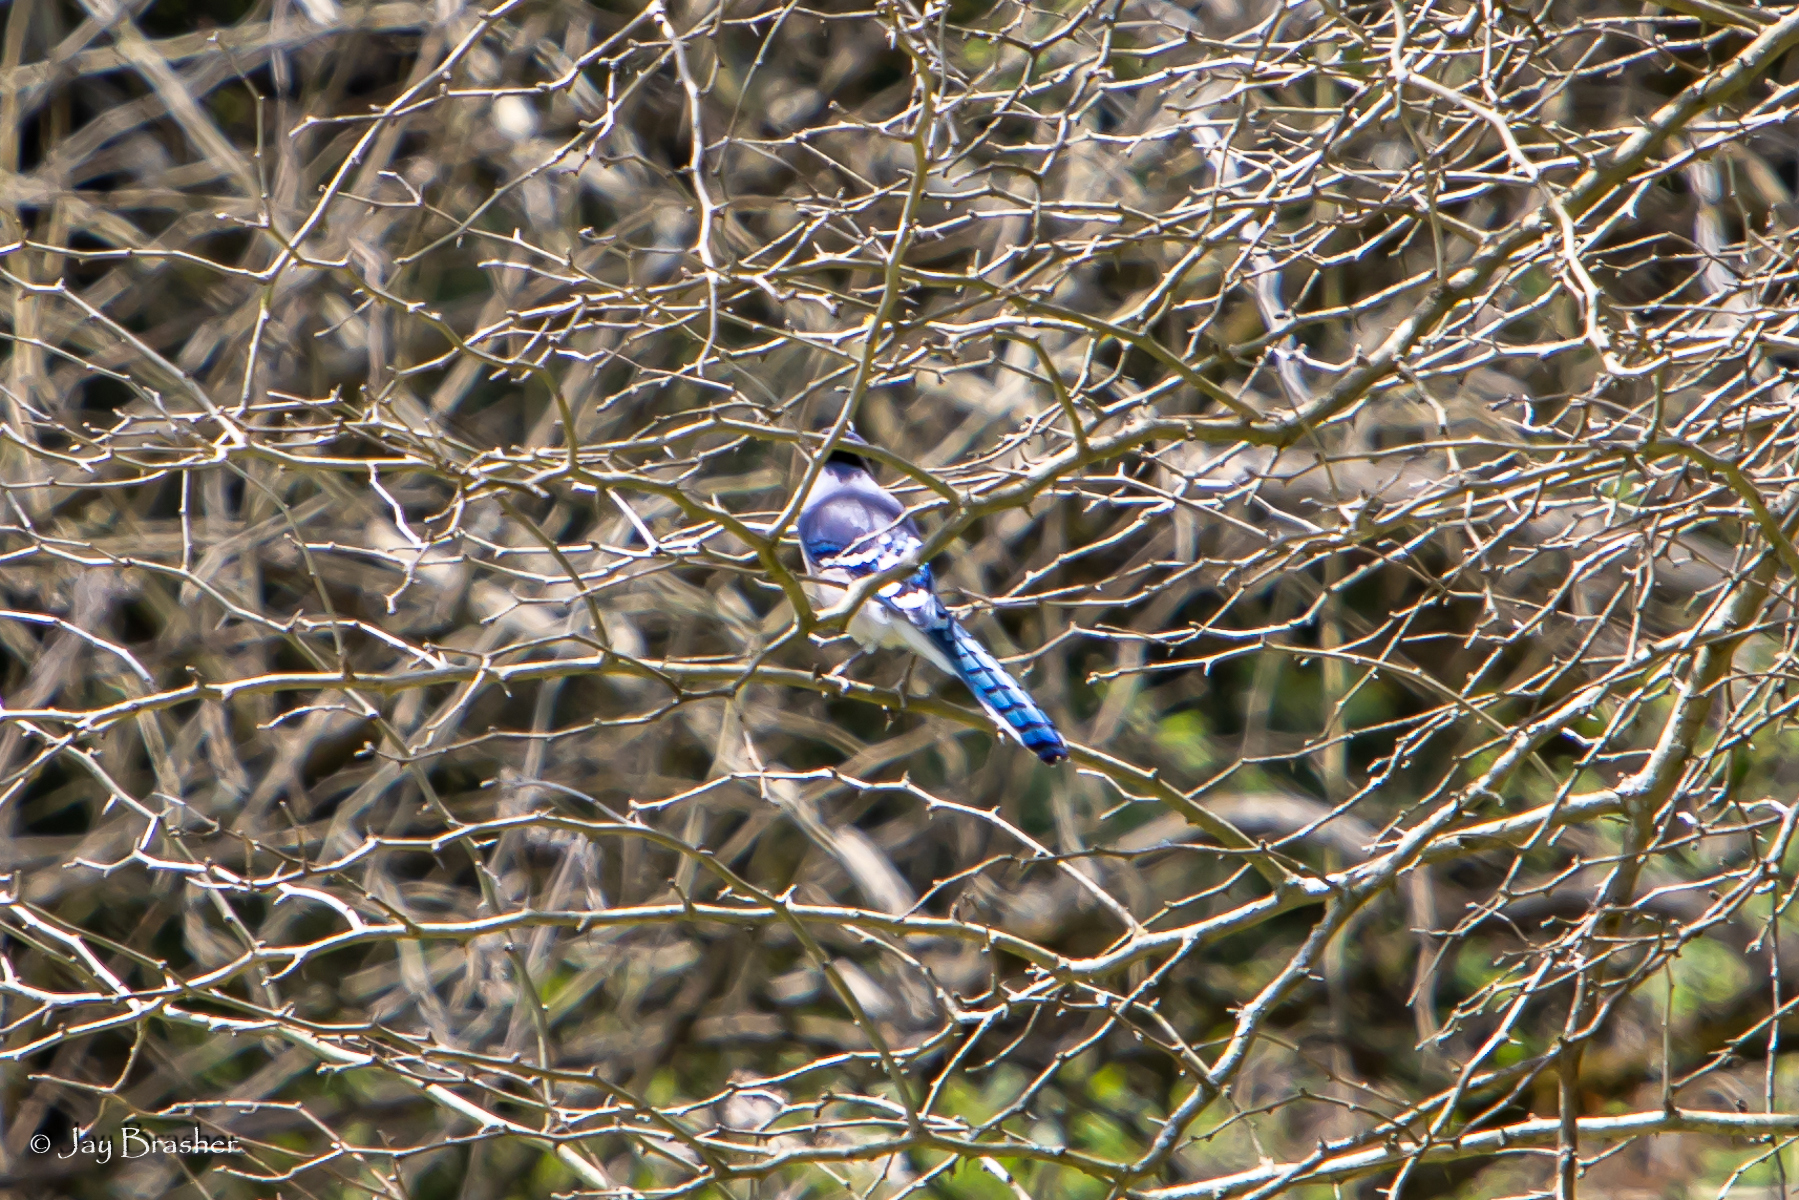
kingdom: Animalia
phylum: Chordata
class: Aves
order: Passeriformes
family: Corvidae
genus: Cyanocitta
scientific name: Cyanocitta cristata
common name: Blue jay
